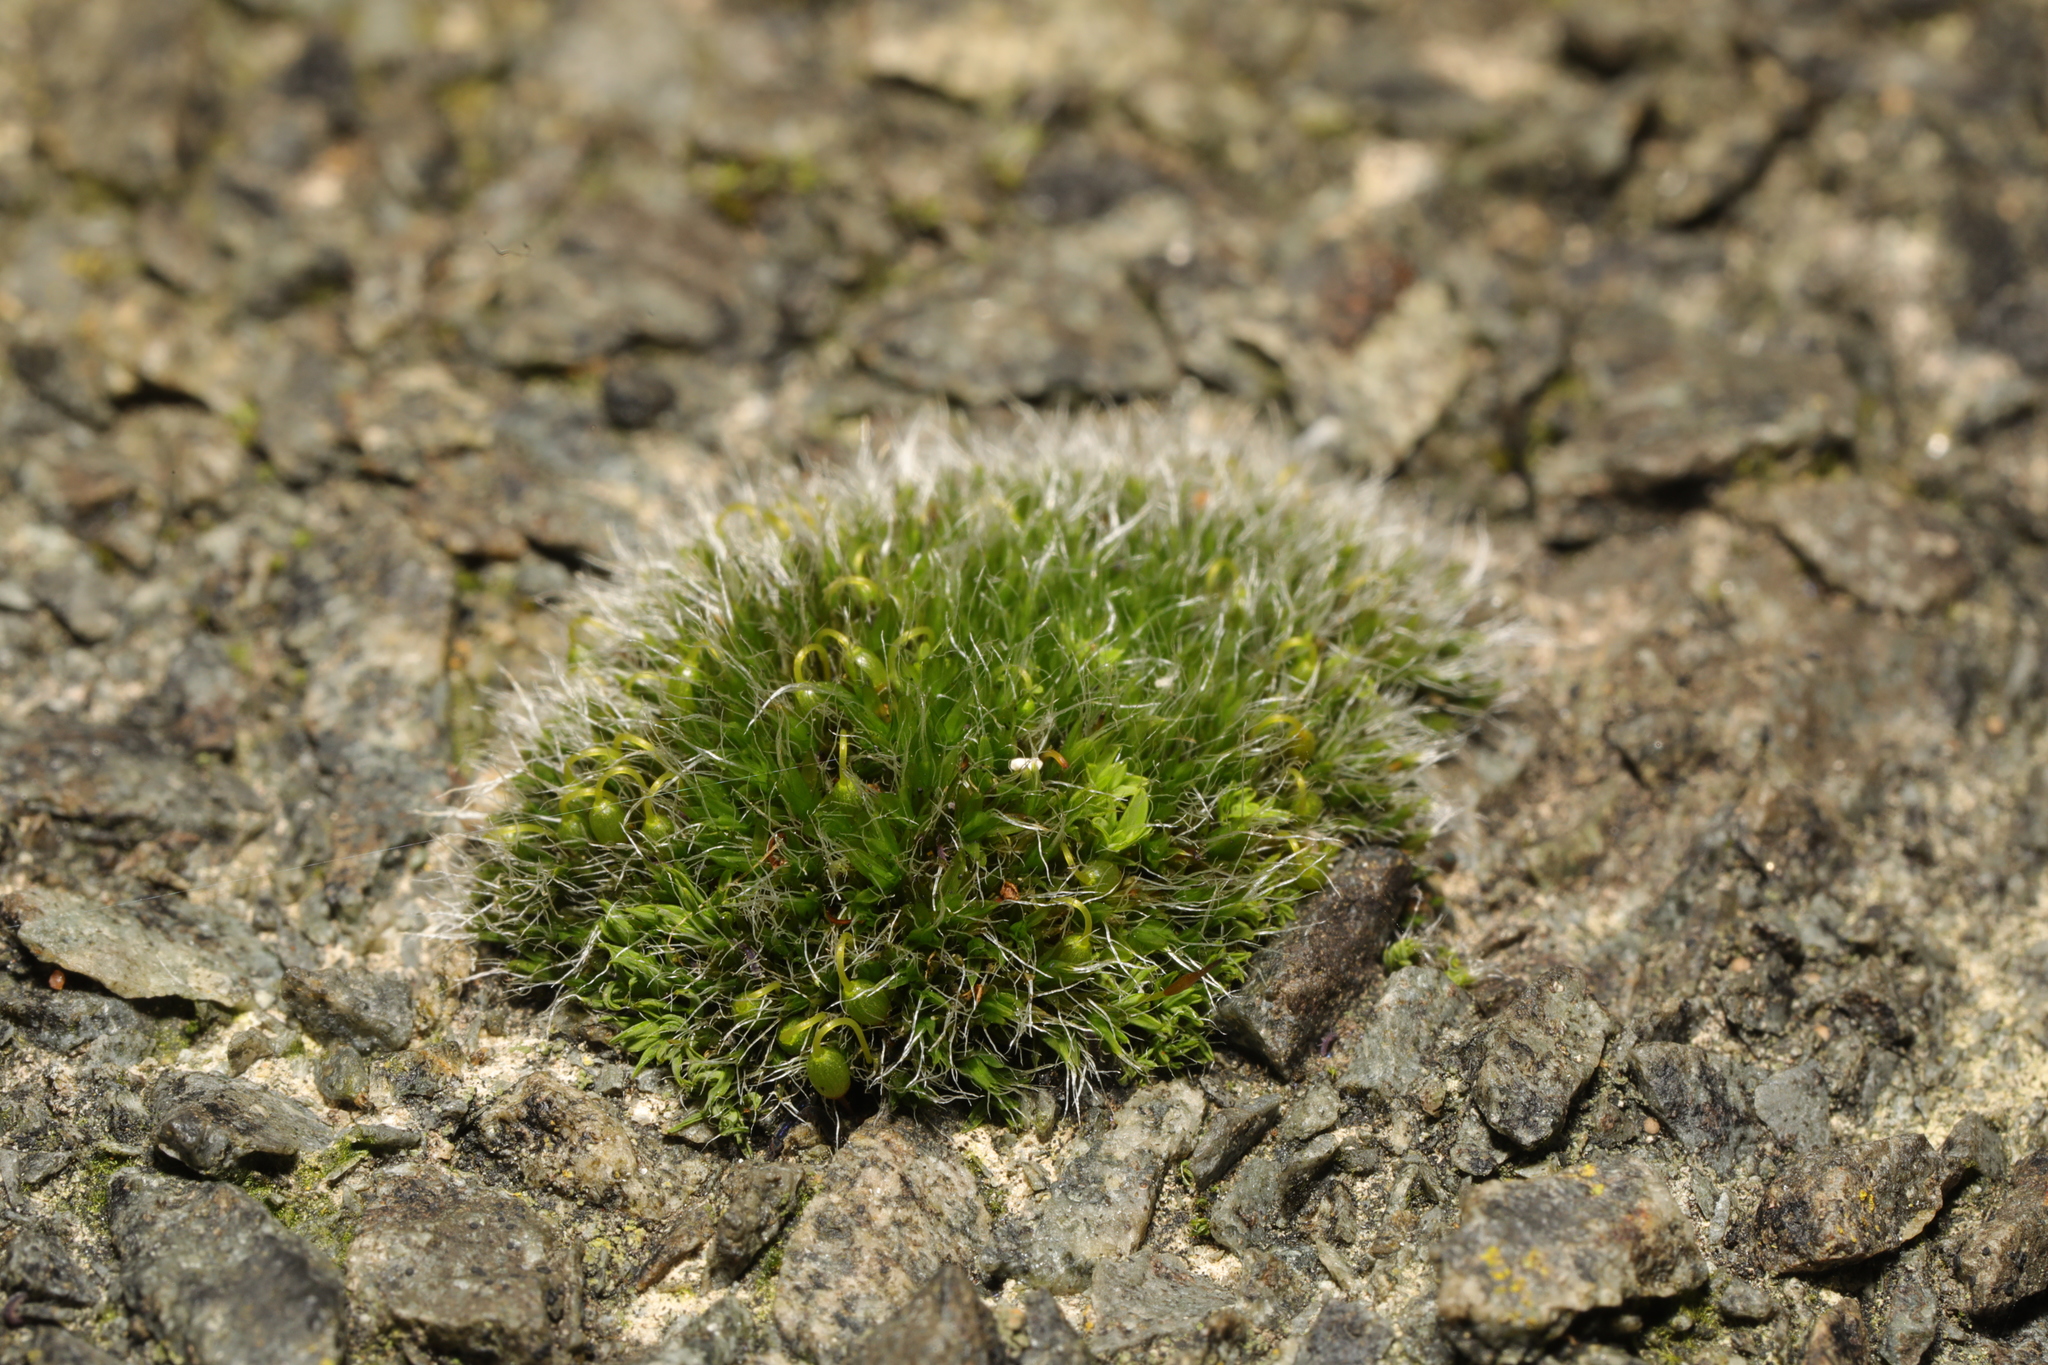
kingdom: Plantae
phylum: Bryophyta
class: Bryopsida
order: Grimmiales
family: Grimmiaceae
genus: Grimmia
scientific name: Grimmia pulvinata
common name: Grey-cushioned grimmia
